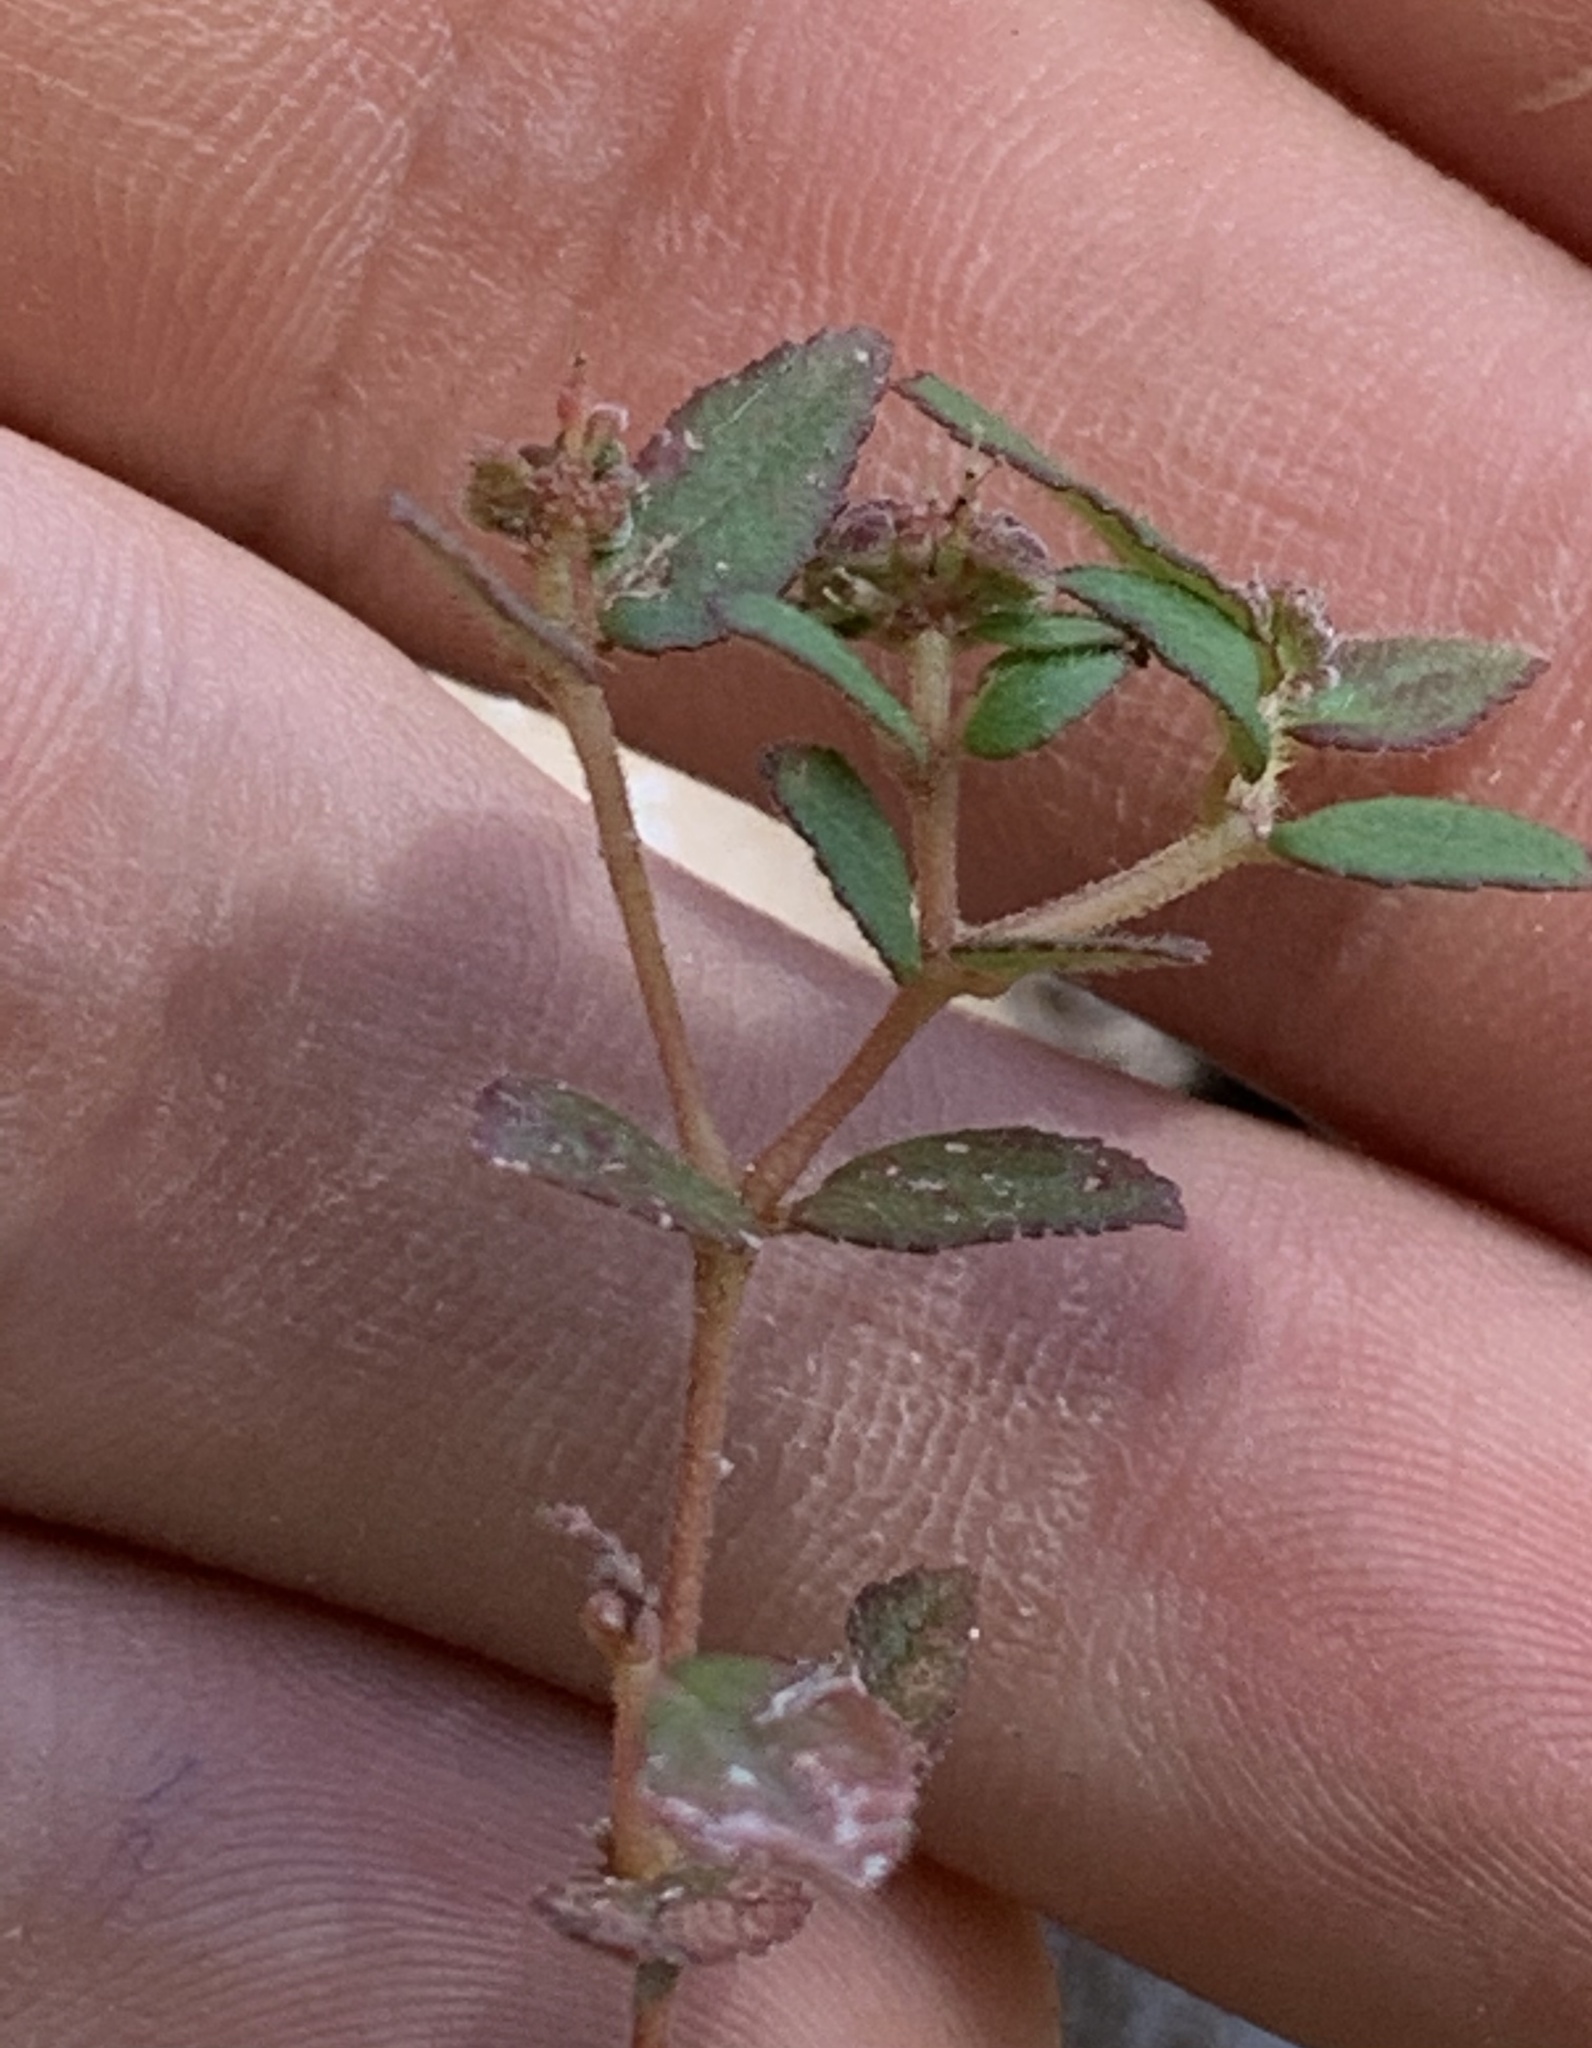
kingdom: Plantae
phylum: Tracheophyta
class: Magnoliopsida
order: Malpighiales
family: Euphorbiaceae
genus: Euphorbia
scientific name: Euphorbia ophthalmica
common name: Florida hammock sandmat
